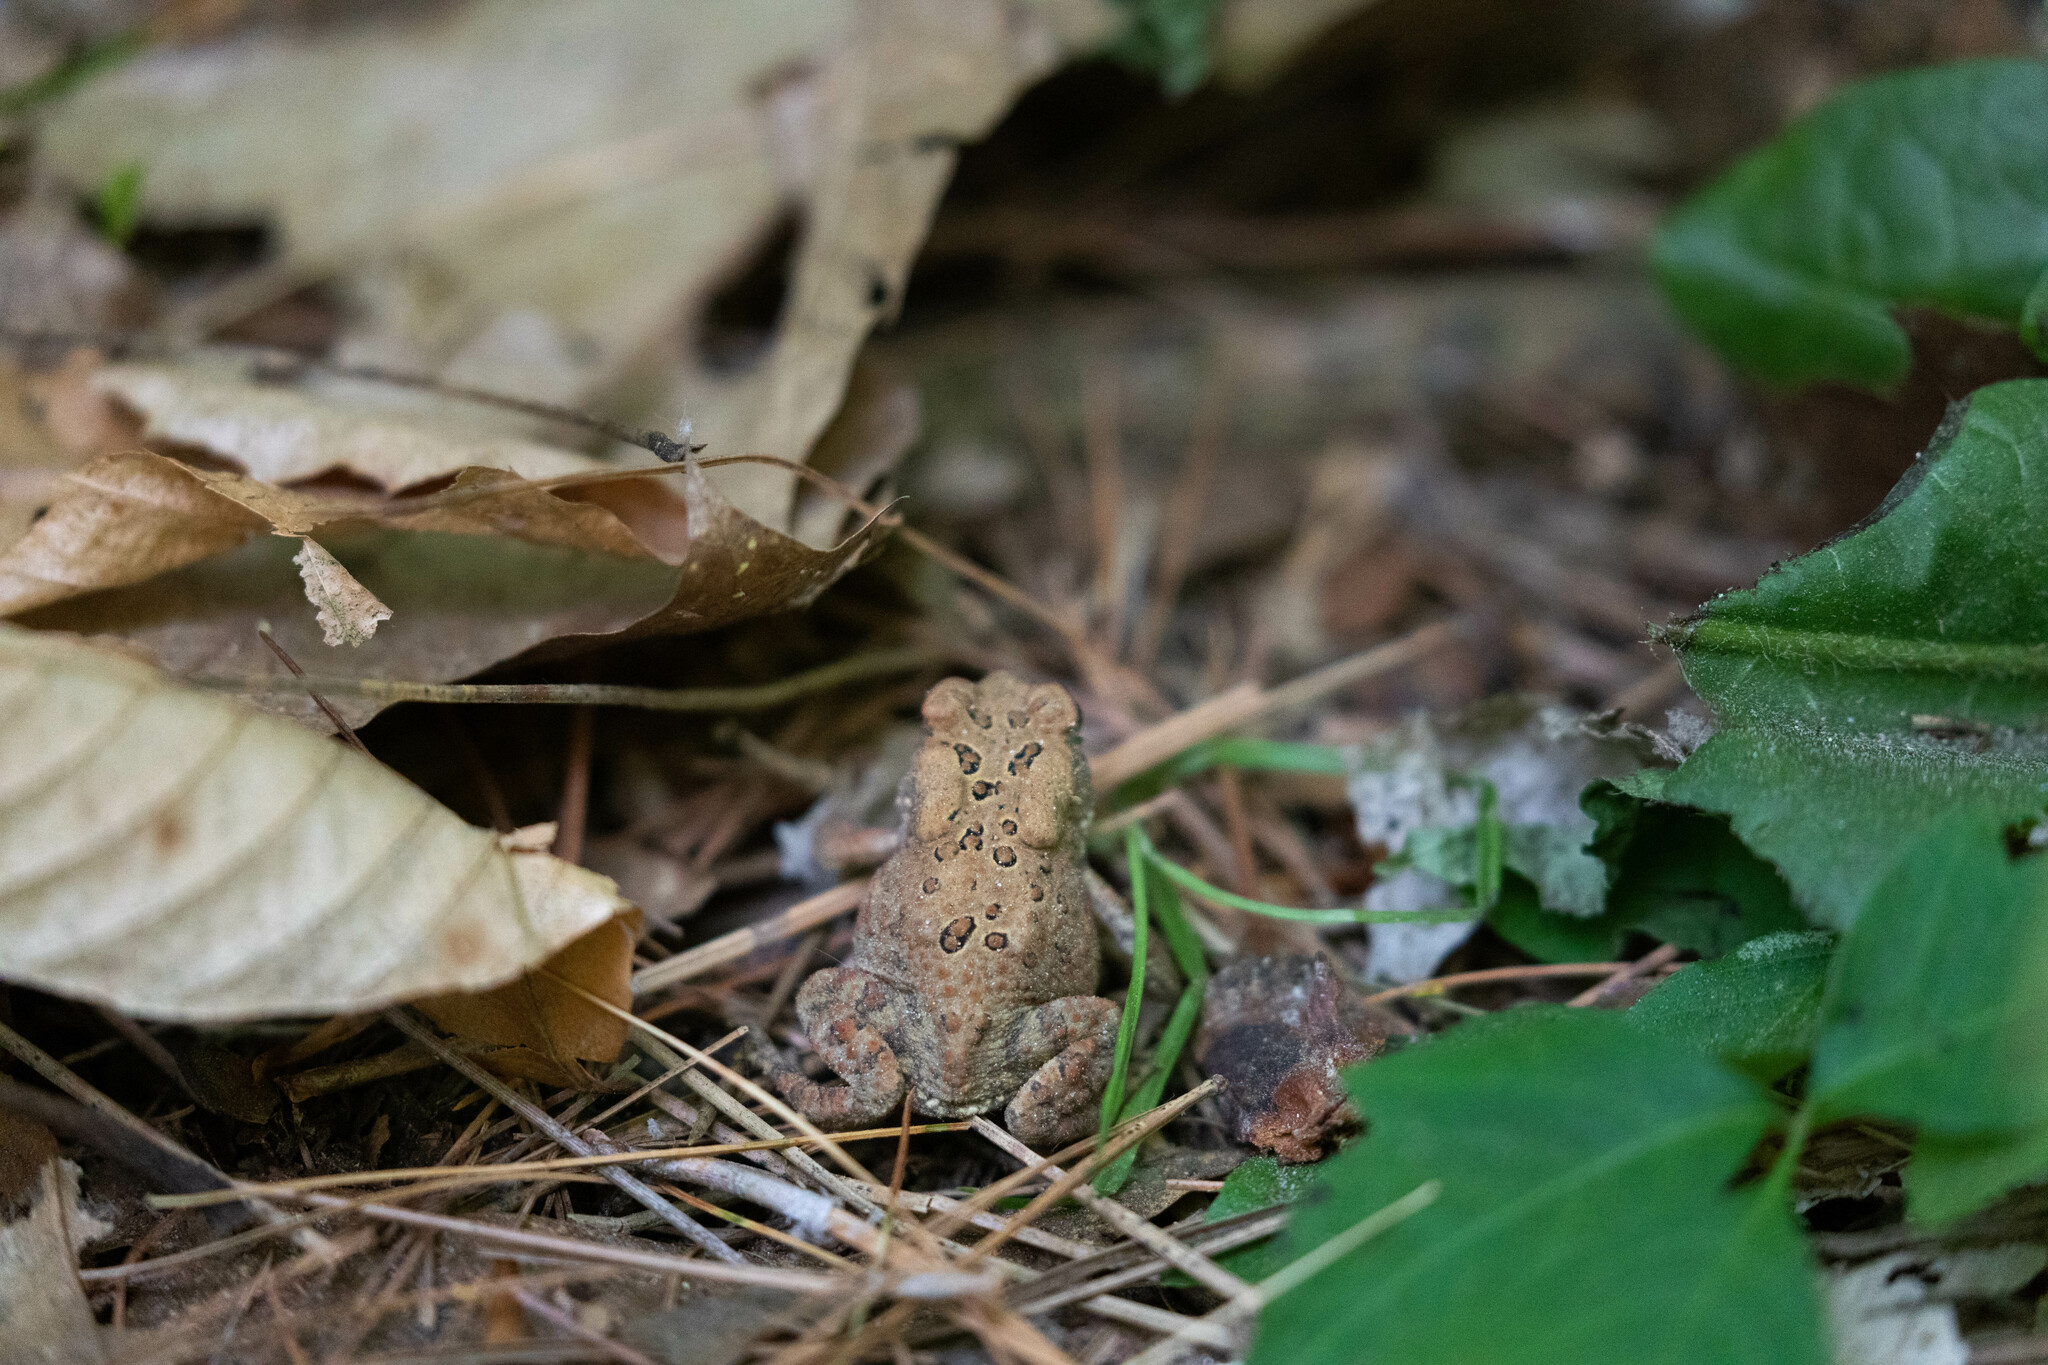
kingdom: Animalia
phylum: Chordata
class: Amphibia
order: Anura
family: Bufonidae
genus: Anaxyrus
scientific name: Anaxyrus americanus
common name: American toad
